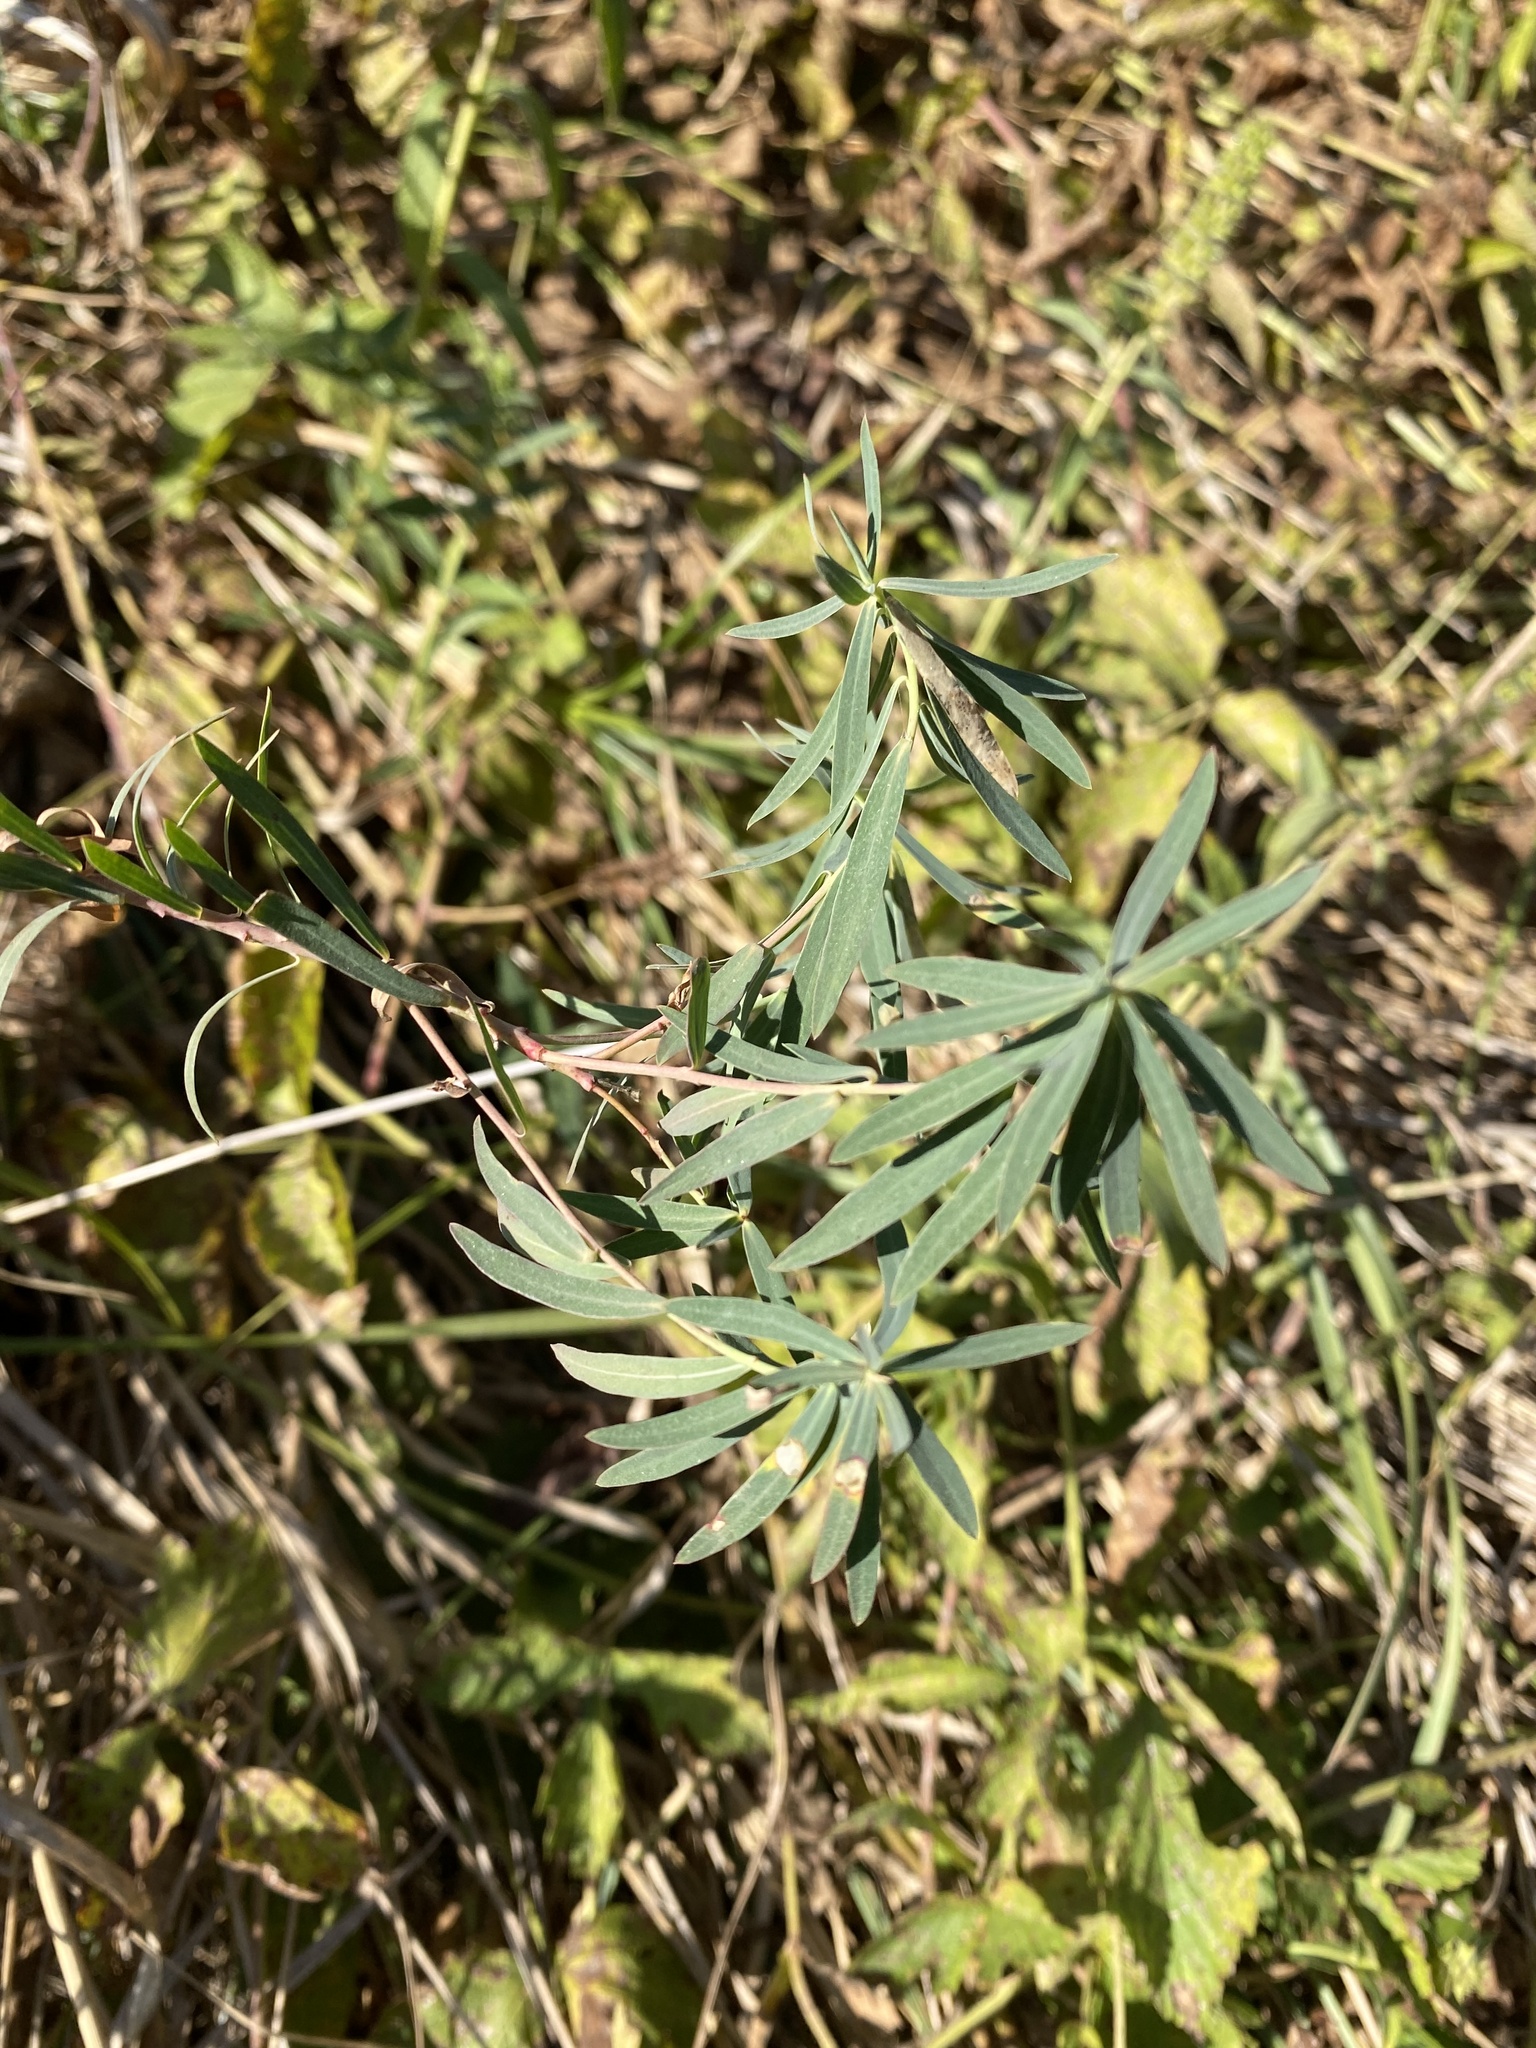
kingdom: Plantae
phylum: Tracheophyta
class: Magnoliopsida
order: Malpighiales
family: Euphorbiaceae
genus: Euphorbia
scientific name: Euphorbia virgata
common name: Leafy spurge
